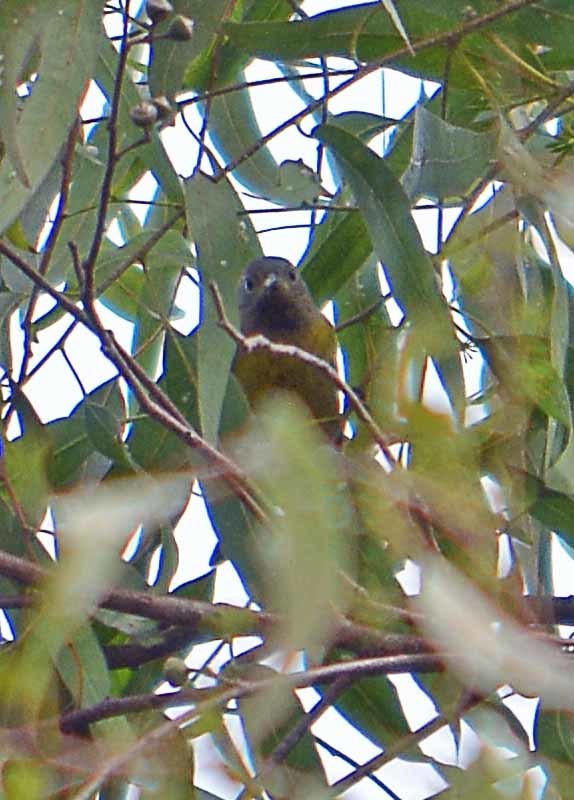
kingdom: Animalia
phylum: Chordata
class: Aves
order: Passeriformes
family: Parulidae
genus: Geothlypis
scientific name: Geothlypis tolmiei
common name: Macgillivray's warbler
